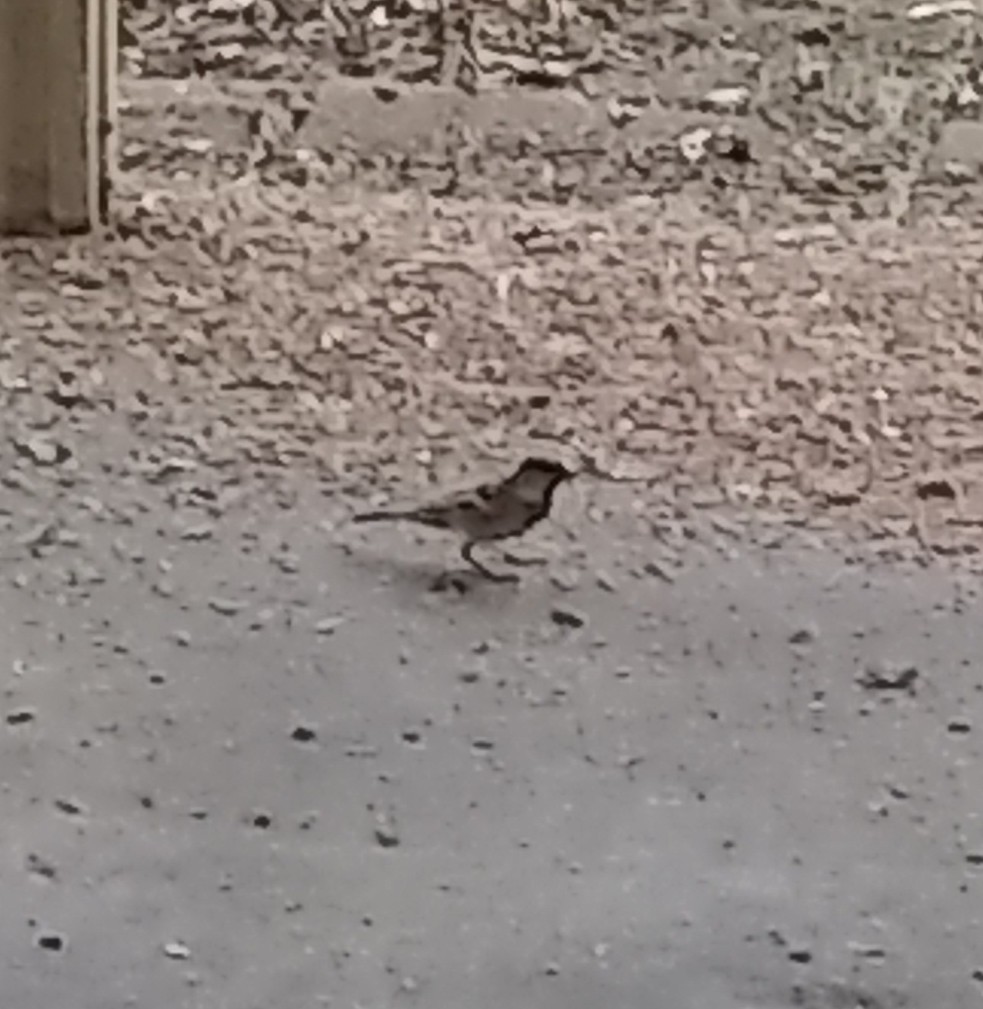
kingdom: Animalia
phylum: Chordata
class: Aves
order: Passeriformes
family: Passeridae
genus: Passer
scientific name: Passer domesticus
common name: House sparrow
